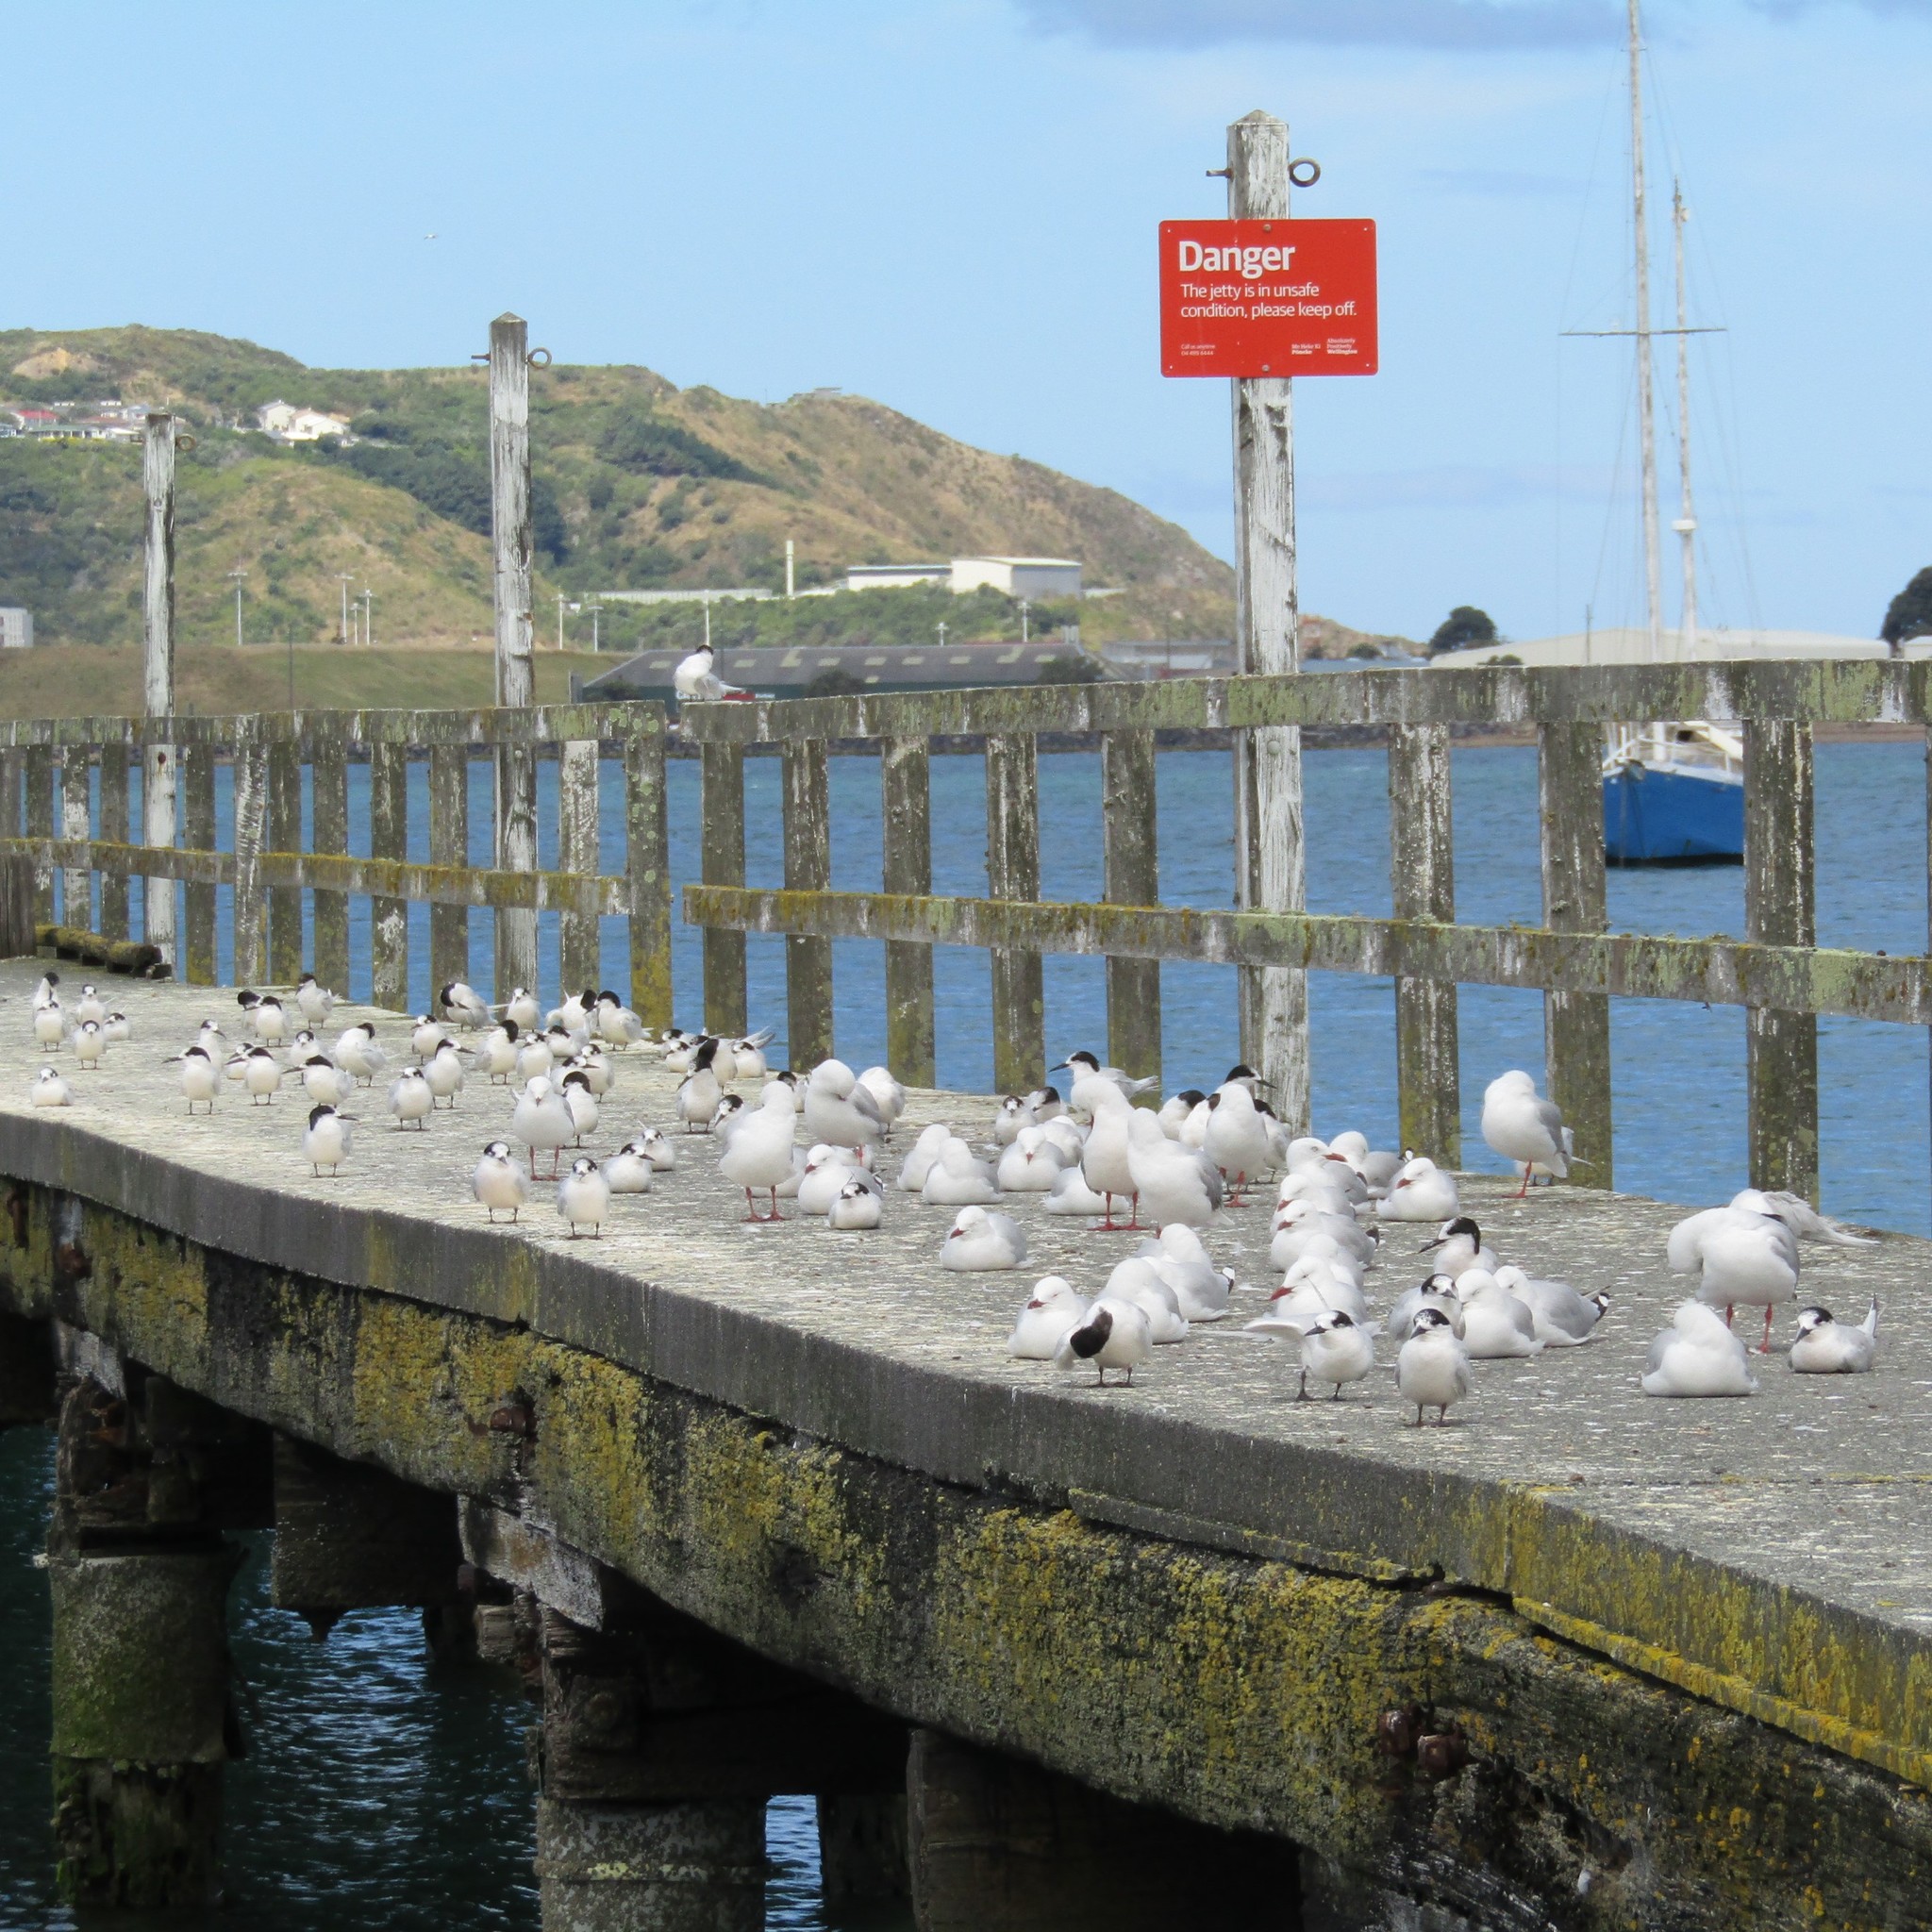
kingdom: Animalia
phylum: Chordata
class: Aves
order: Charadriiformes
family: Laridae
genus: Chroicocephalus
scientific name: Chroicocephalus novaehollandiae
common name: Silver gull
